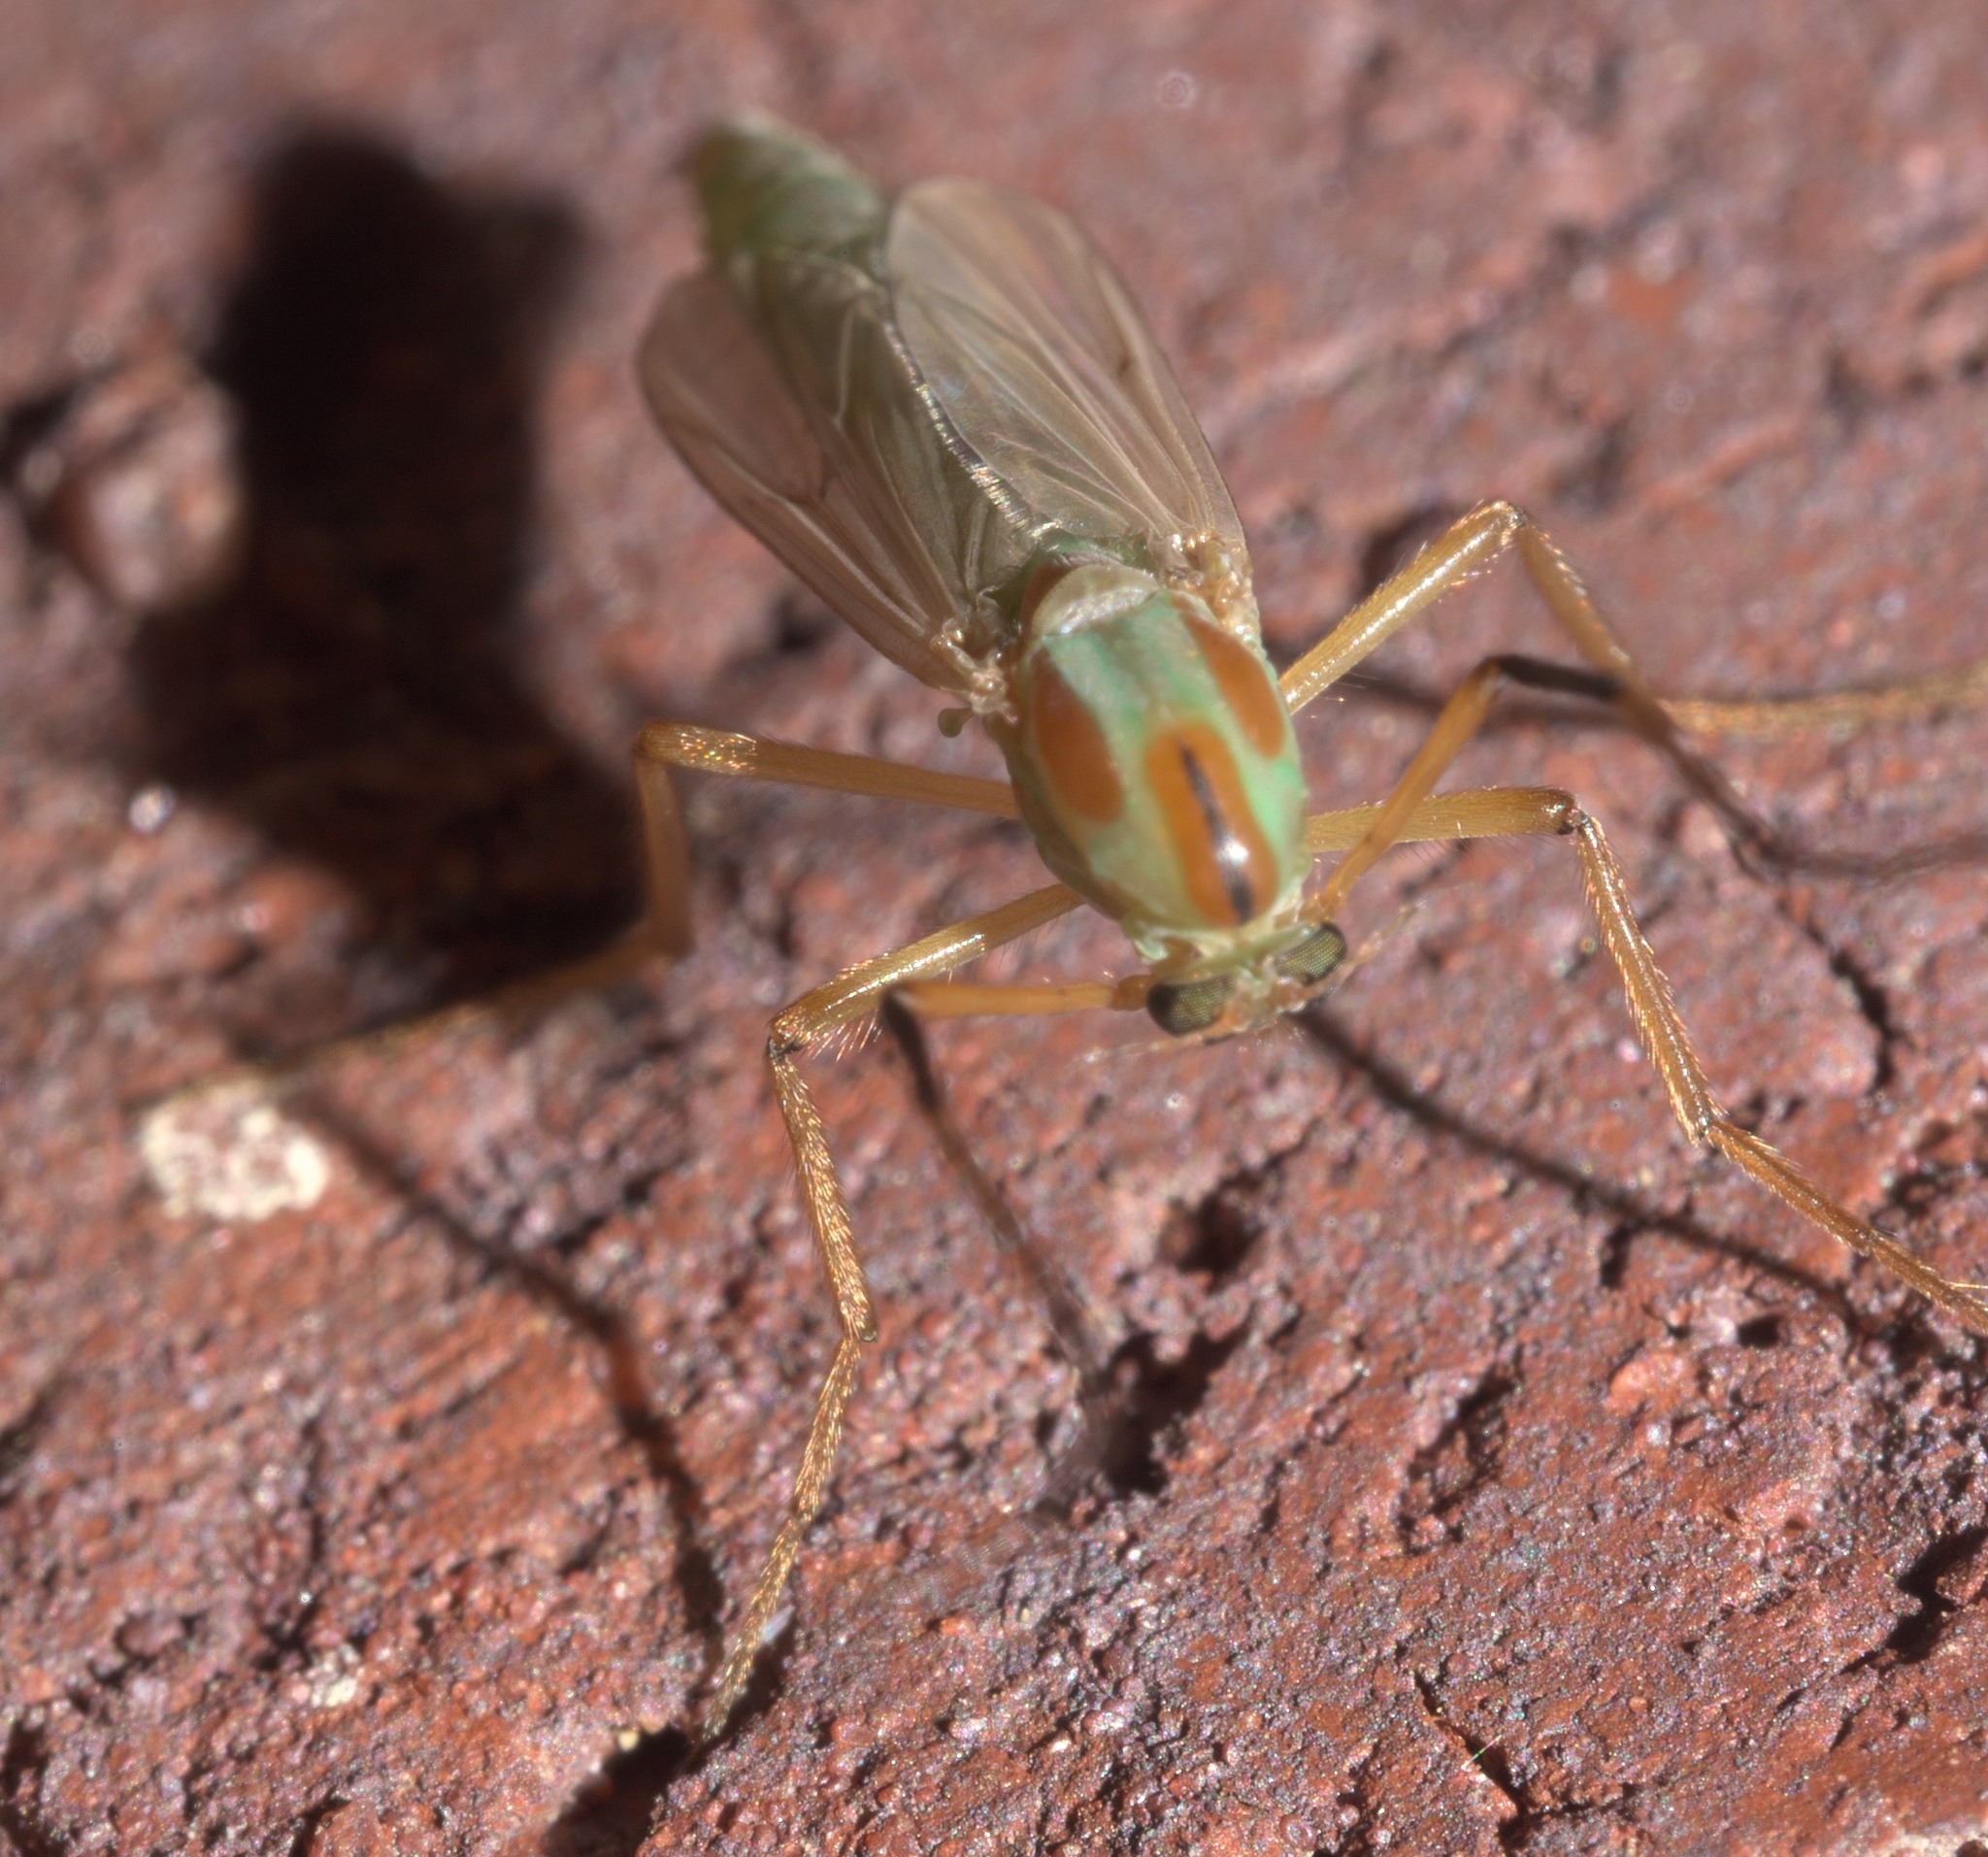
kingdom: Animalia
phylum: Arthropoda
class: Insecta
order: Diptera
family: Chironomidae
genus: Axarus
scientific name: Axarus
